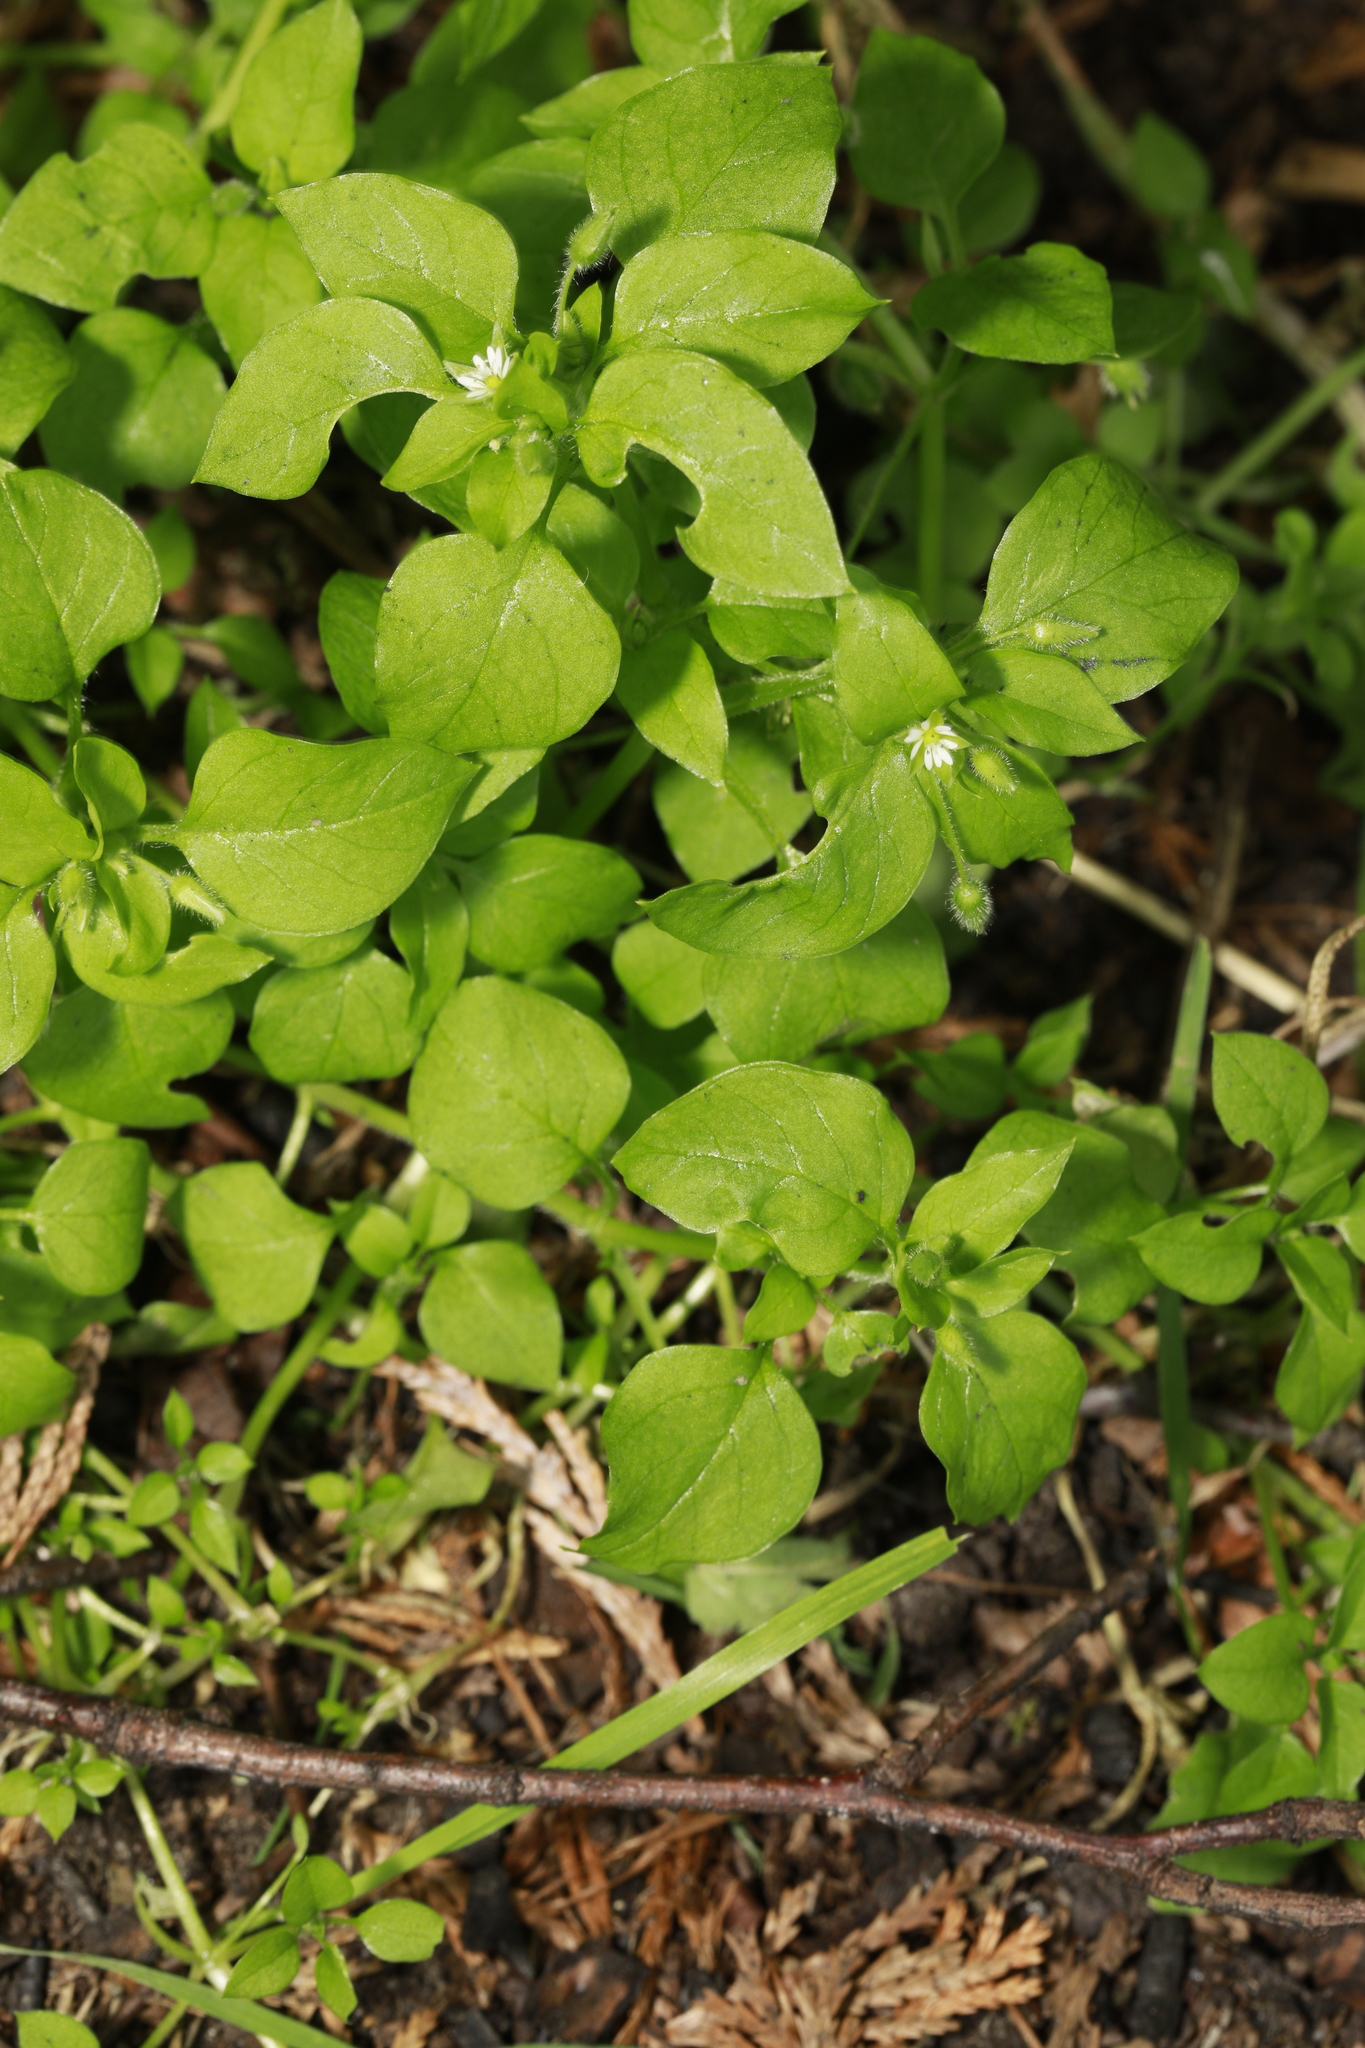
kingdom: Plantae
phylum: Tracheophyta
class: Magnoliopsida
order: Caryophyllales
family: Caryophyllaceae
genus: Stellaria
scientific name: Stellaria media
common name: Common chickweed
